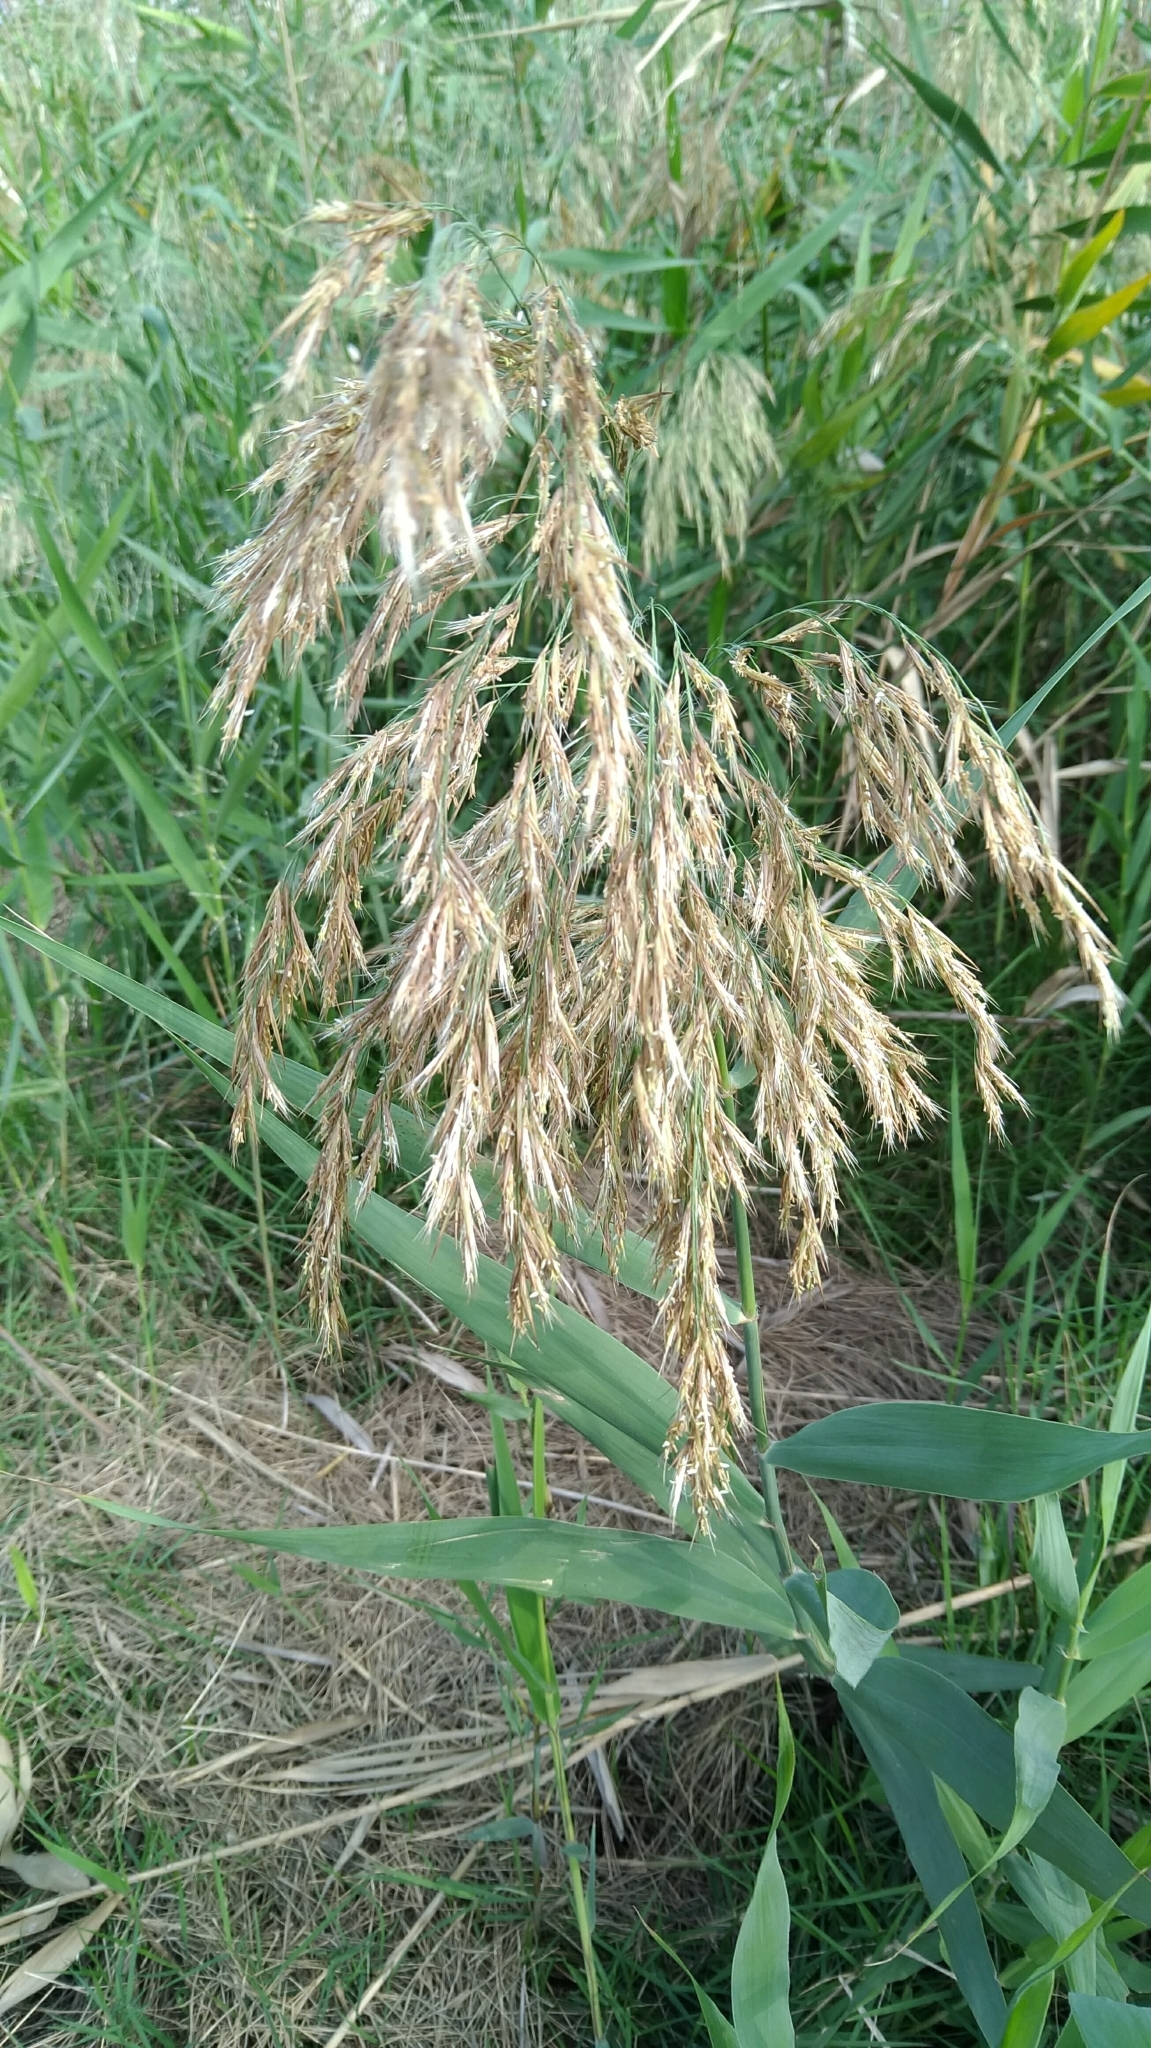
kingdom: Plantae
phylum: Tracheophyta
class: Liliopsida
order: Poales
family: Poaceae
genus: Phragmites
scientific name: Phragmites australis
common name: Common reed
